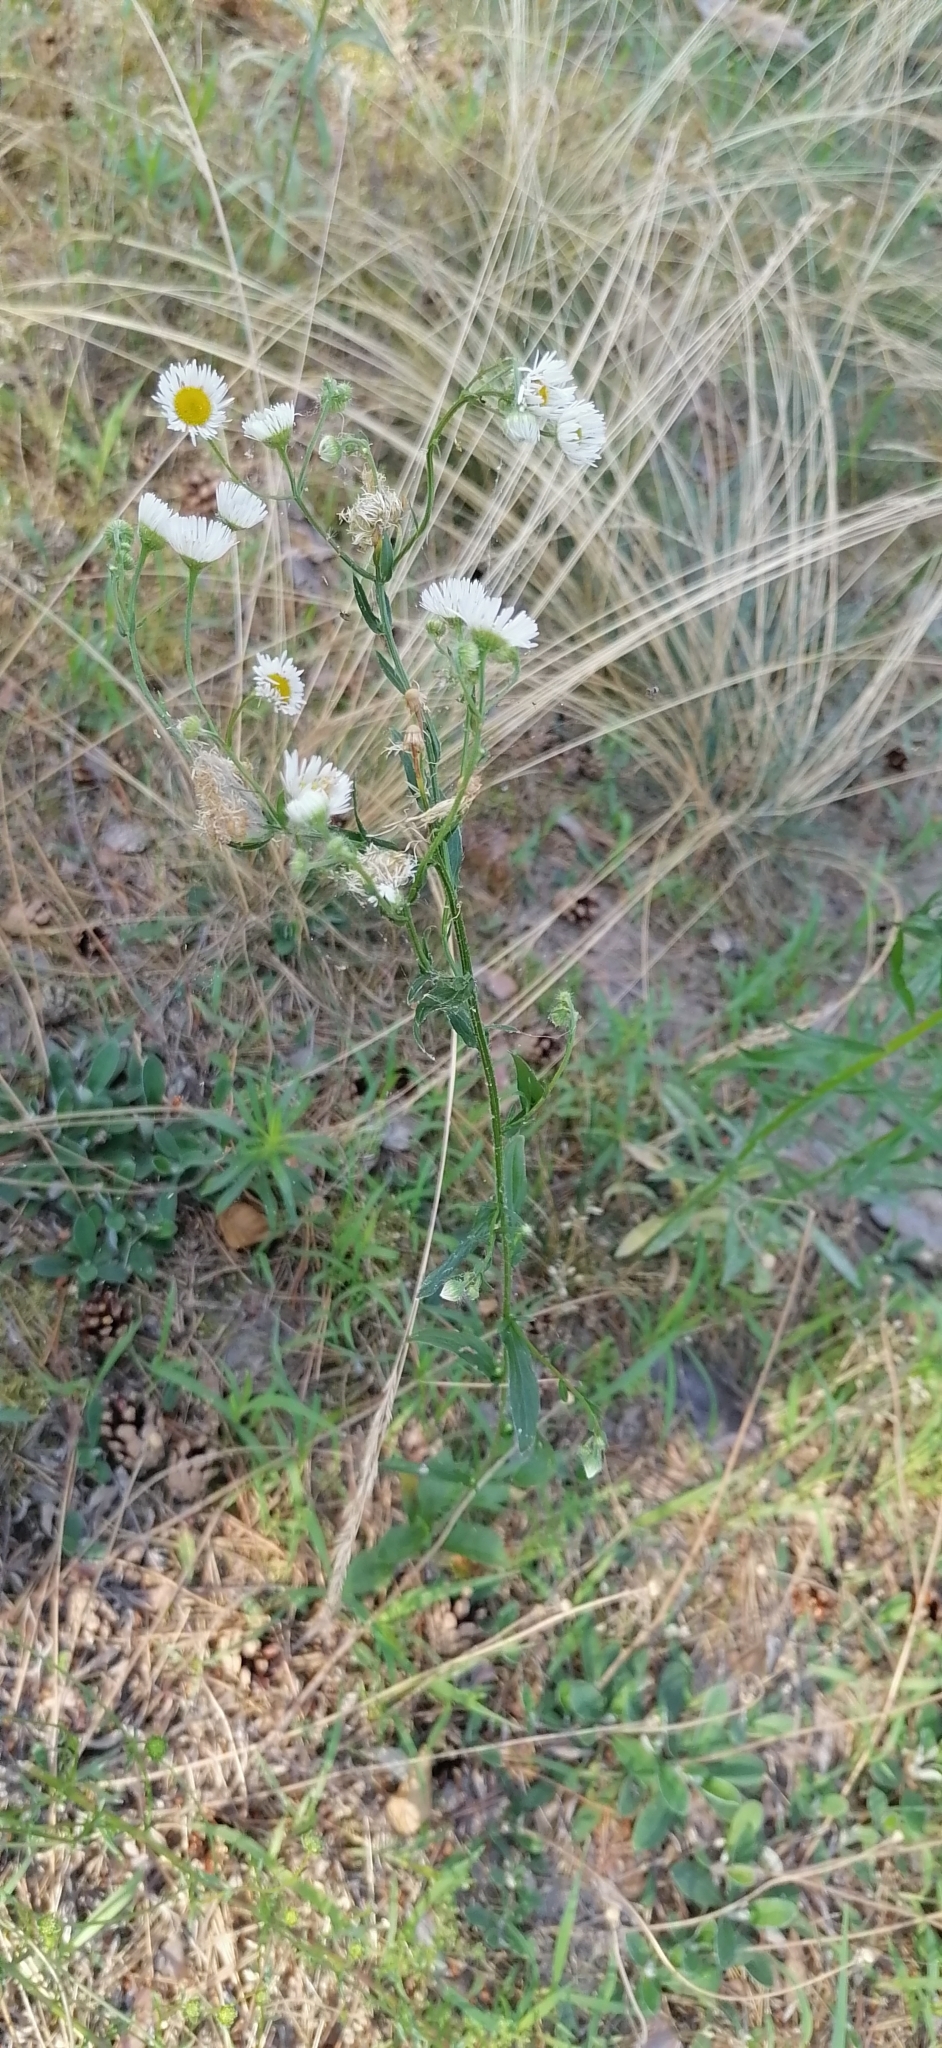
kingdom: Plantae
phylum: Tracheophyta
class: Magnoliopsida
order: Asterales
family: Asteraceae
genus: Erigeron
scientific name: Erigeron strigosus
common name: Common eastern fleabane
